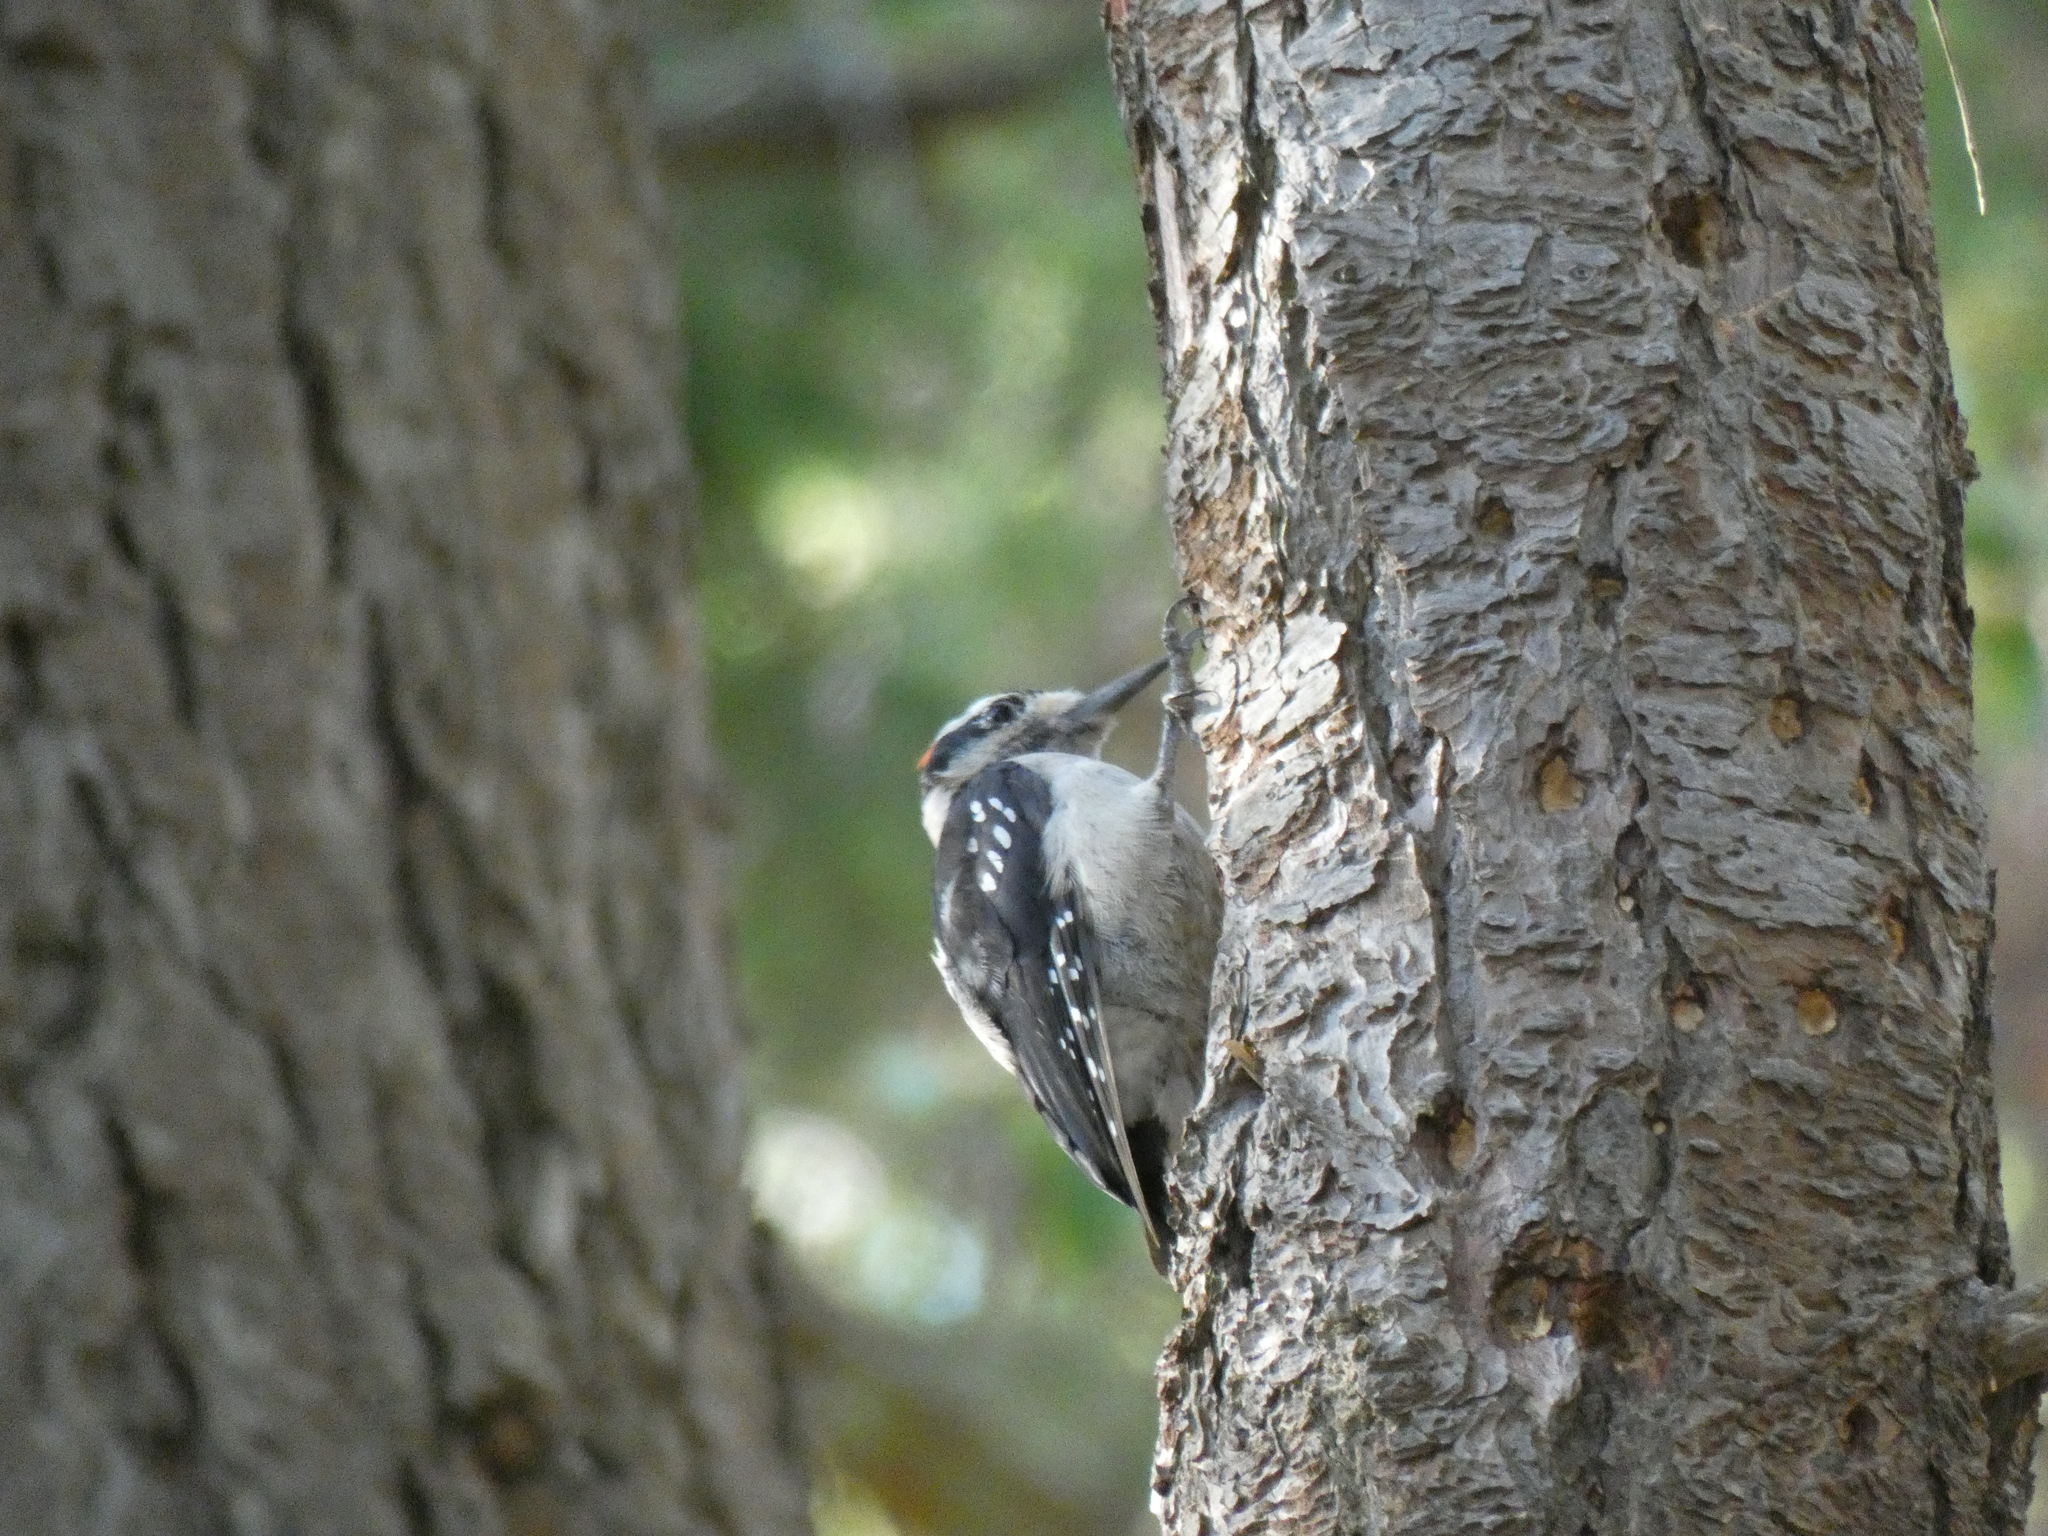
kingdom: Animalia
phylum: Chordata
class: Aves
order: Piciformes
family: Picidae
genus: Leuconotopicus
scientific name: Leuconotopicus villosus
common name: Hairy woodpecker
